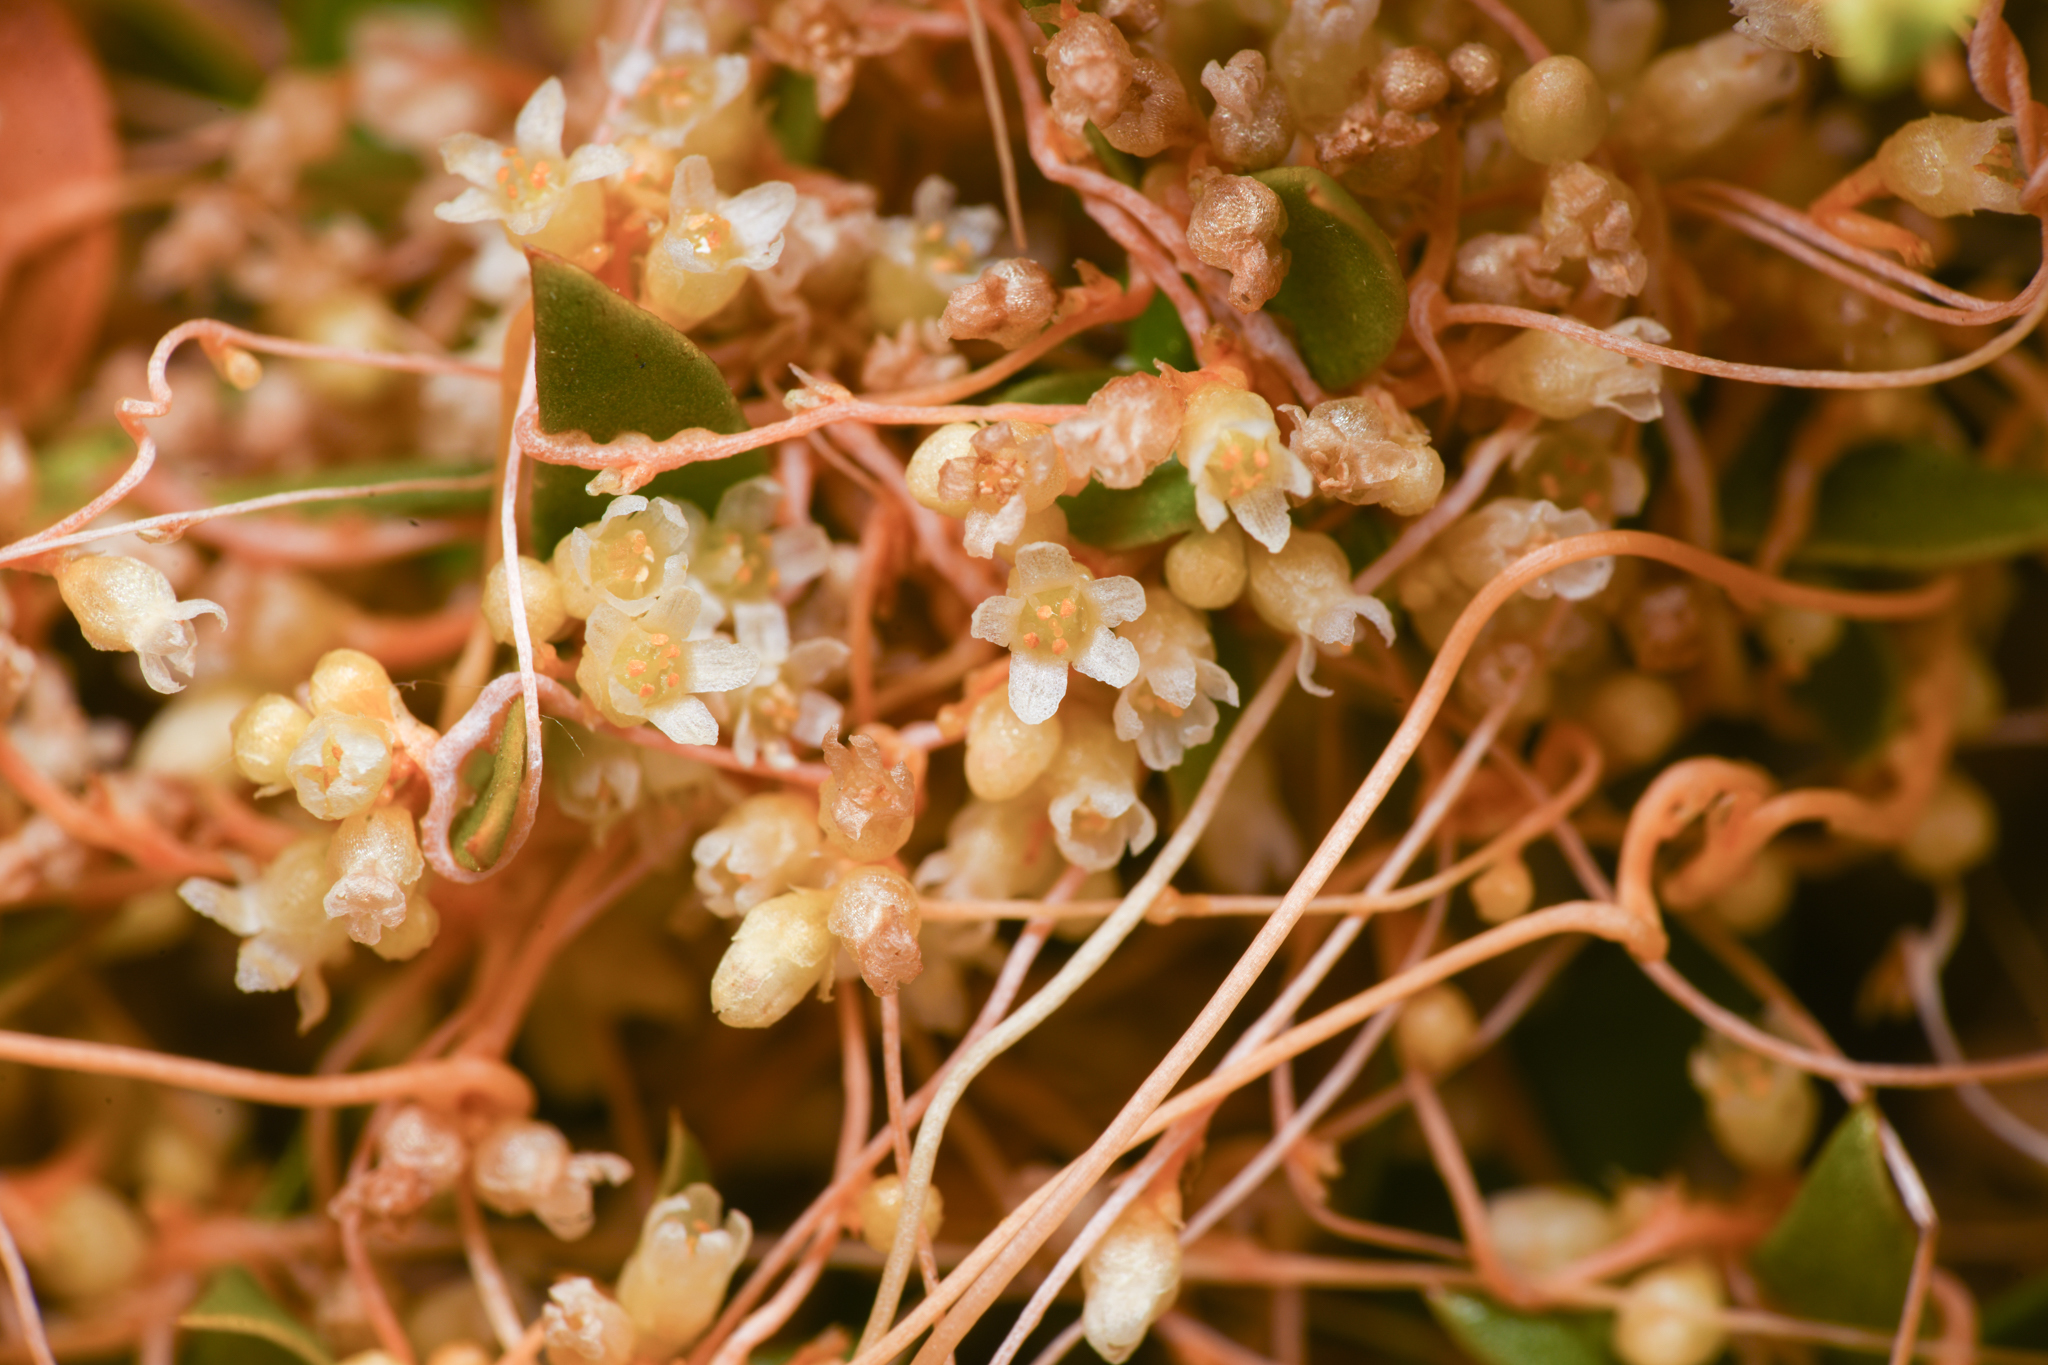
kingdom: Plantae
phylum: Tracheophyta
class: Magnoliopsida
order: Solanales
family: Convolvulaceae
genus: Cuscuta
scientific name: Cuscuta denticulata
